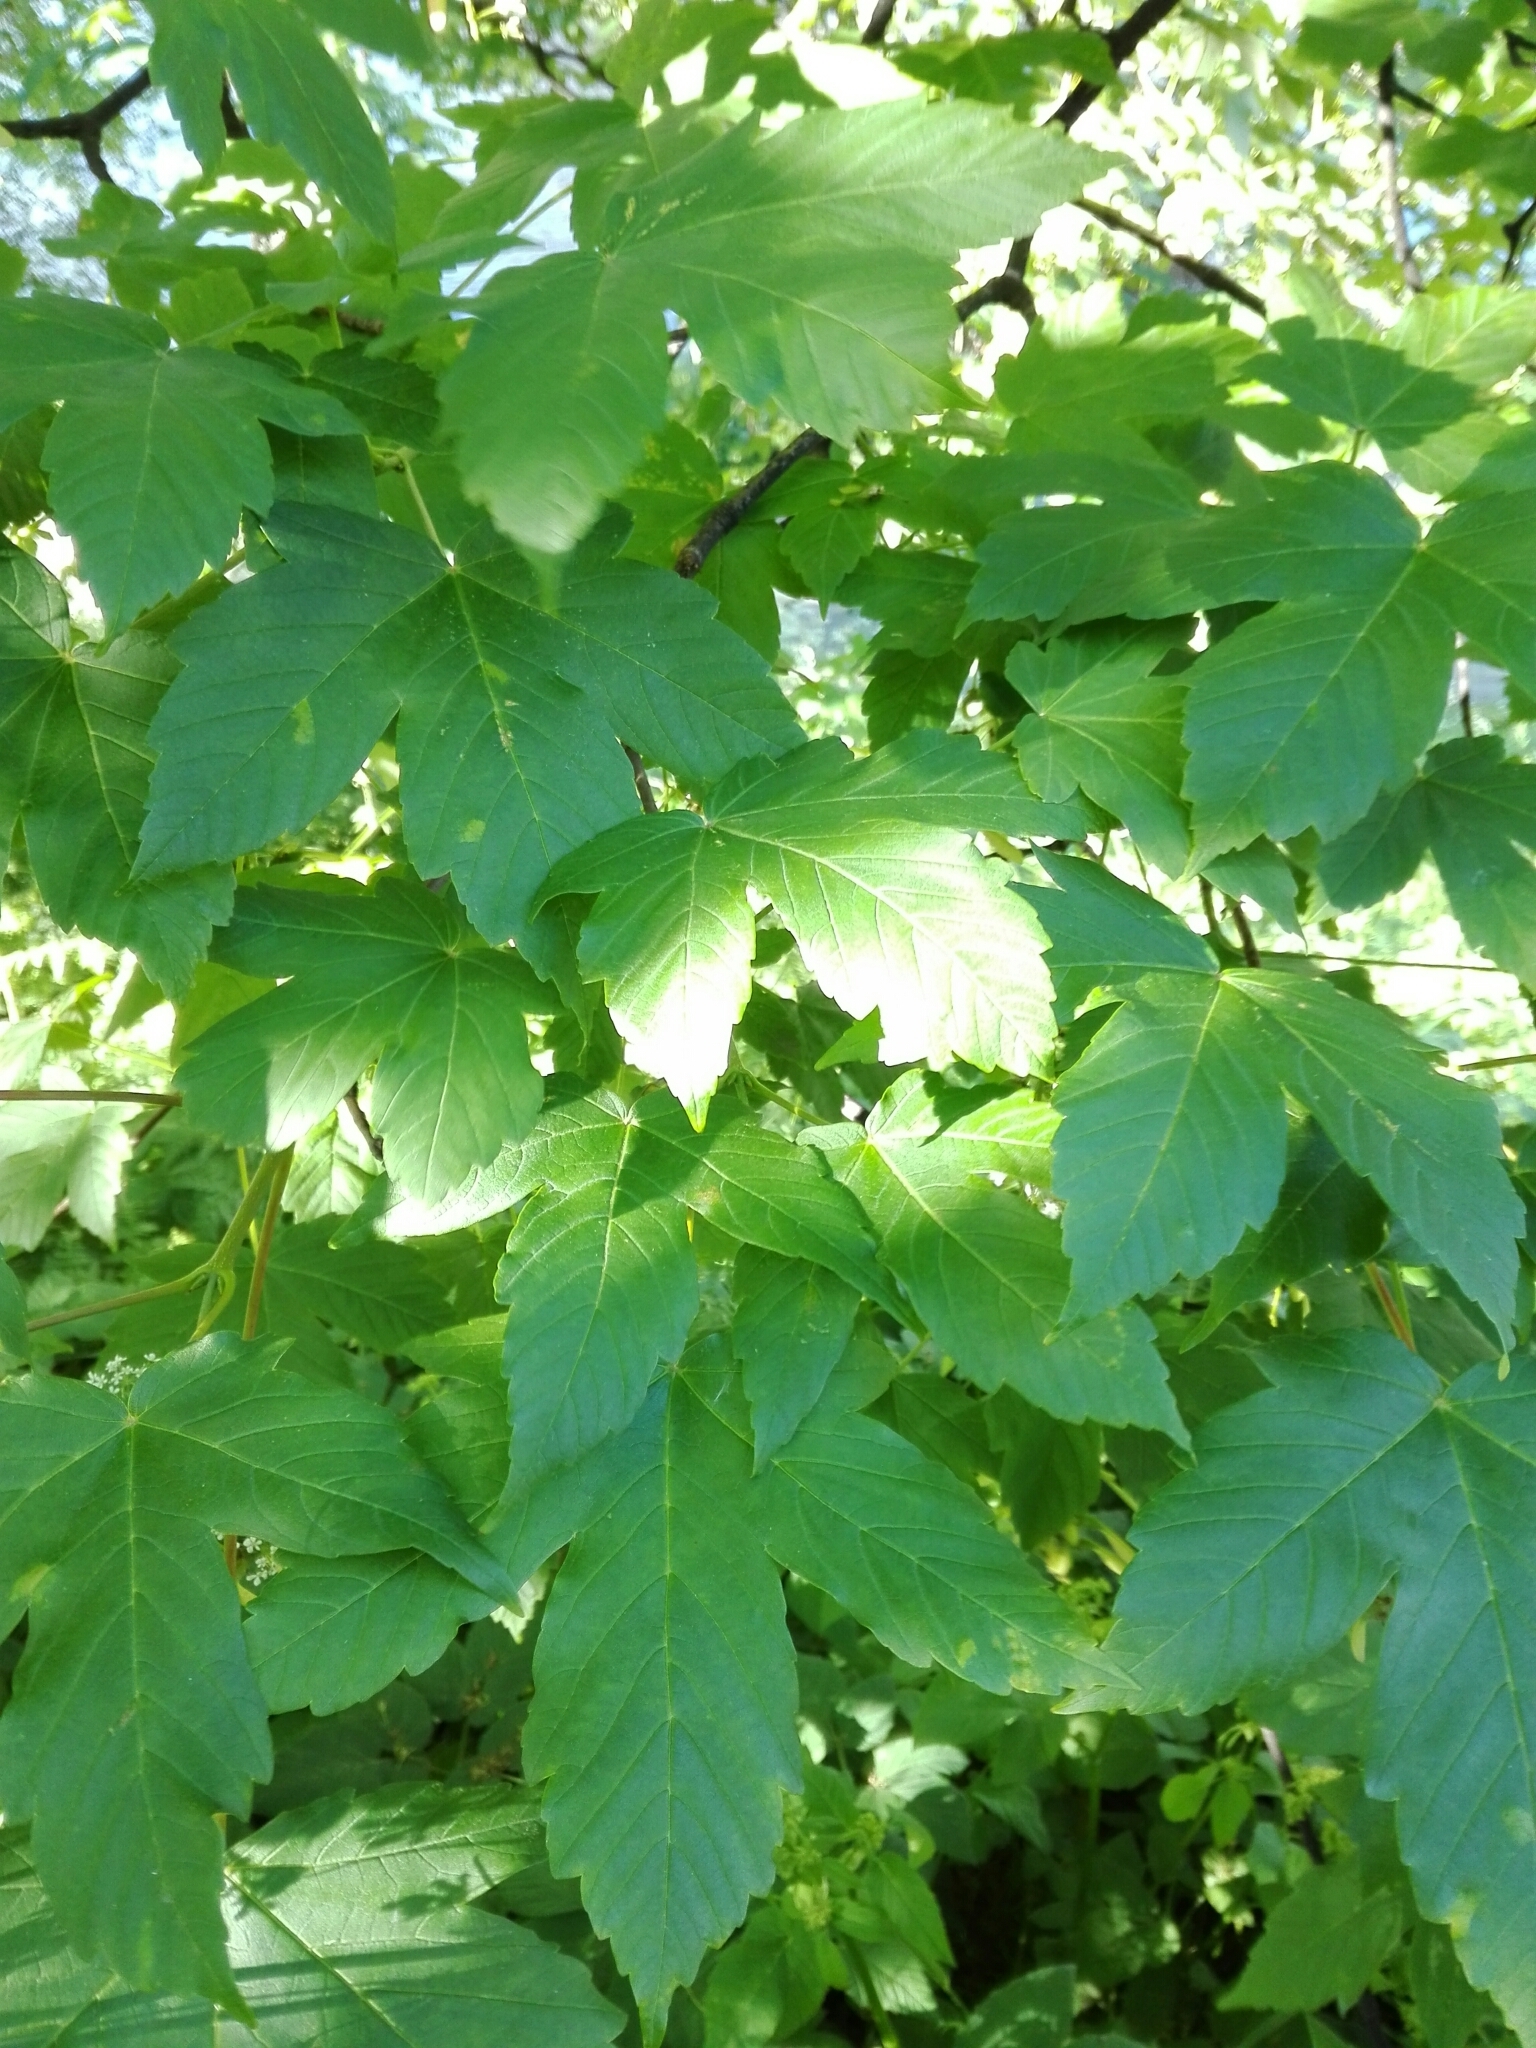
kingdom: Plantae
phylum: Tracheophyta
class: Magnoliopsida
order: Sapindales
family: Sapindaceae
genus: Acer
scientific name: Acer pseudoplatanus
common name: Sycamore
